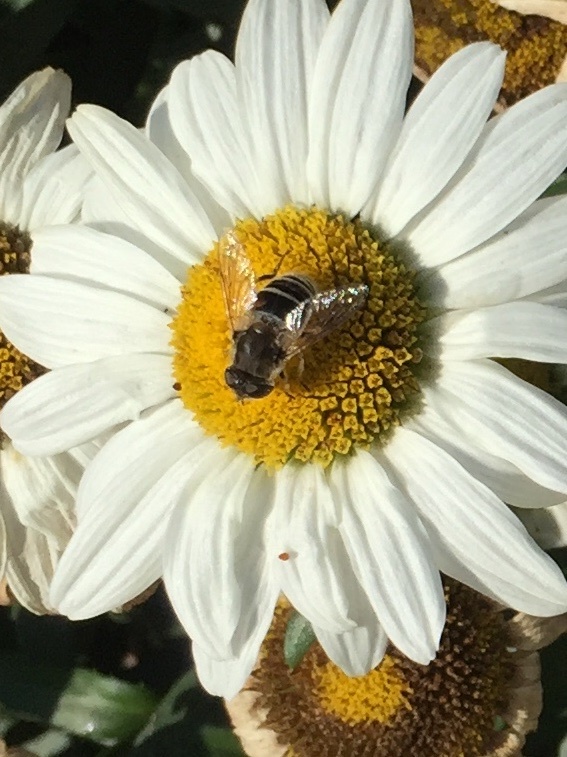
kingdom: Animalia
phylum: Arthropoda
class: Insecta
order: Diptera
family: Syrphidae
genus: Eristalis
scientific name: Eristalis arbustorum
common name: Hover fly
